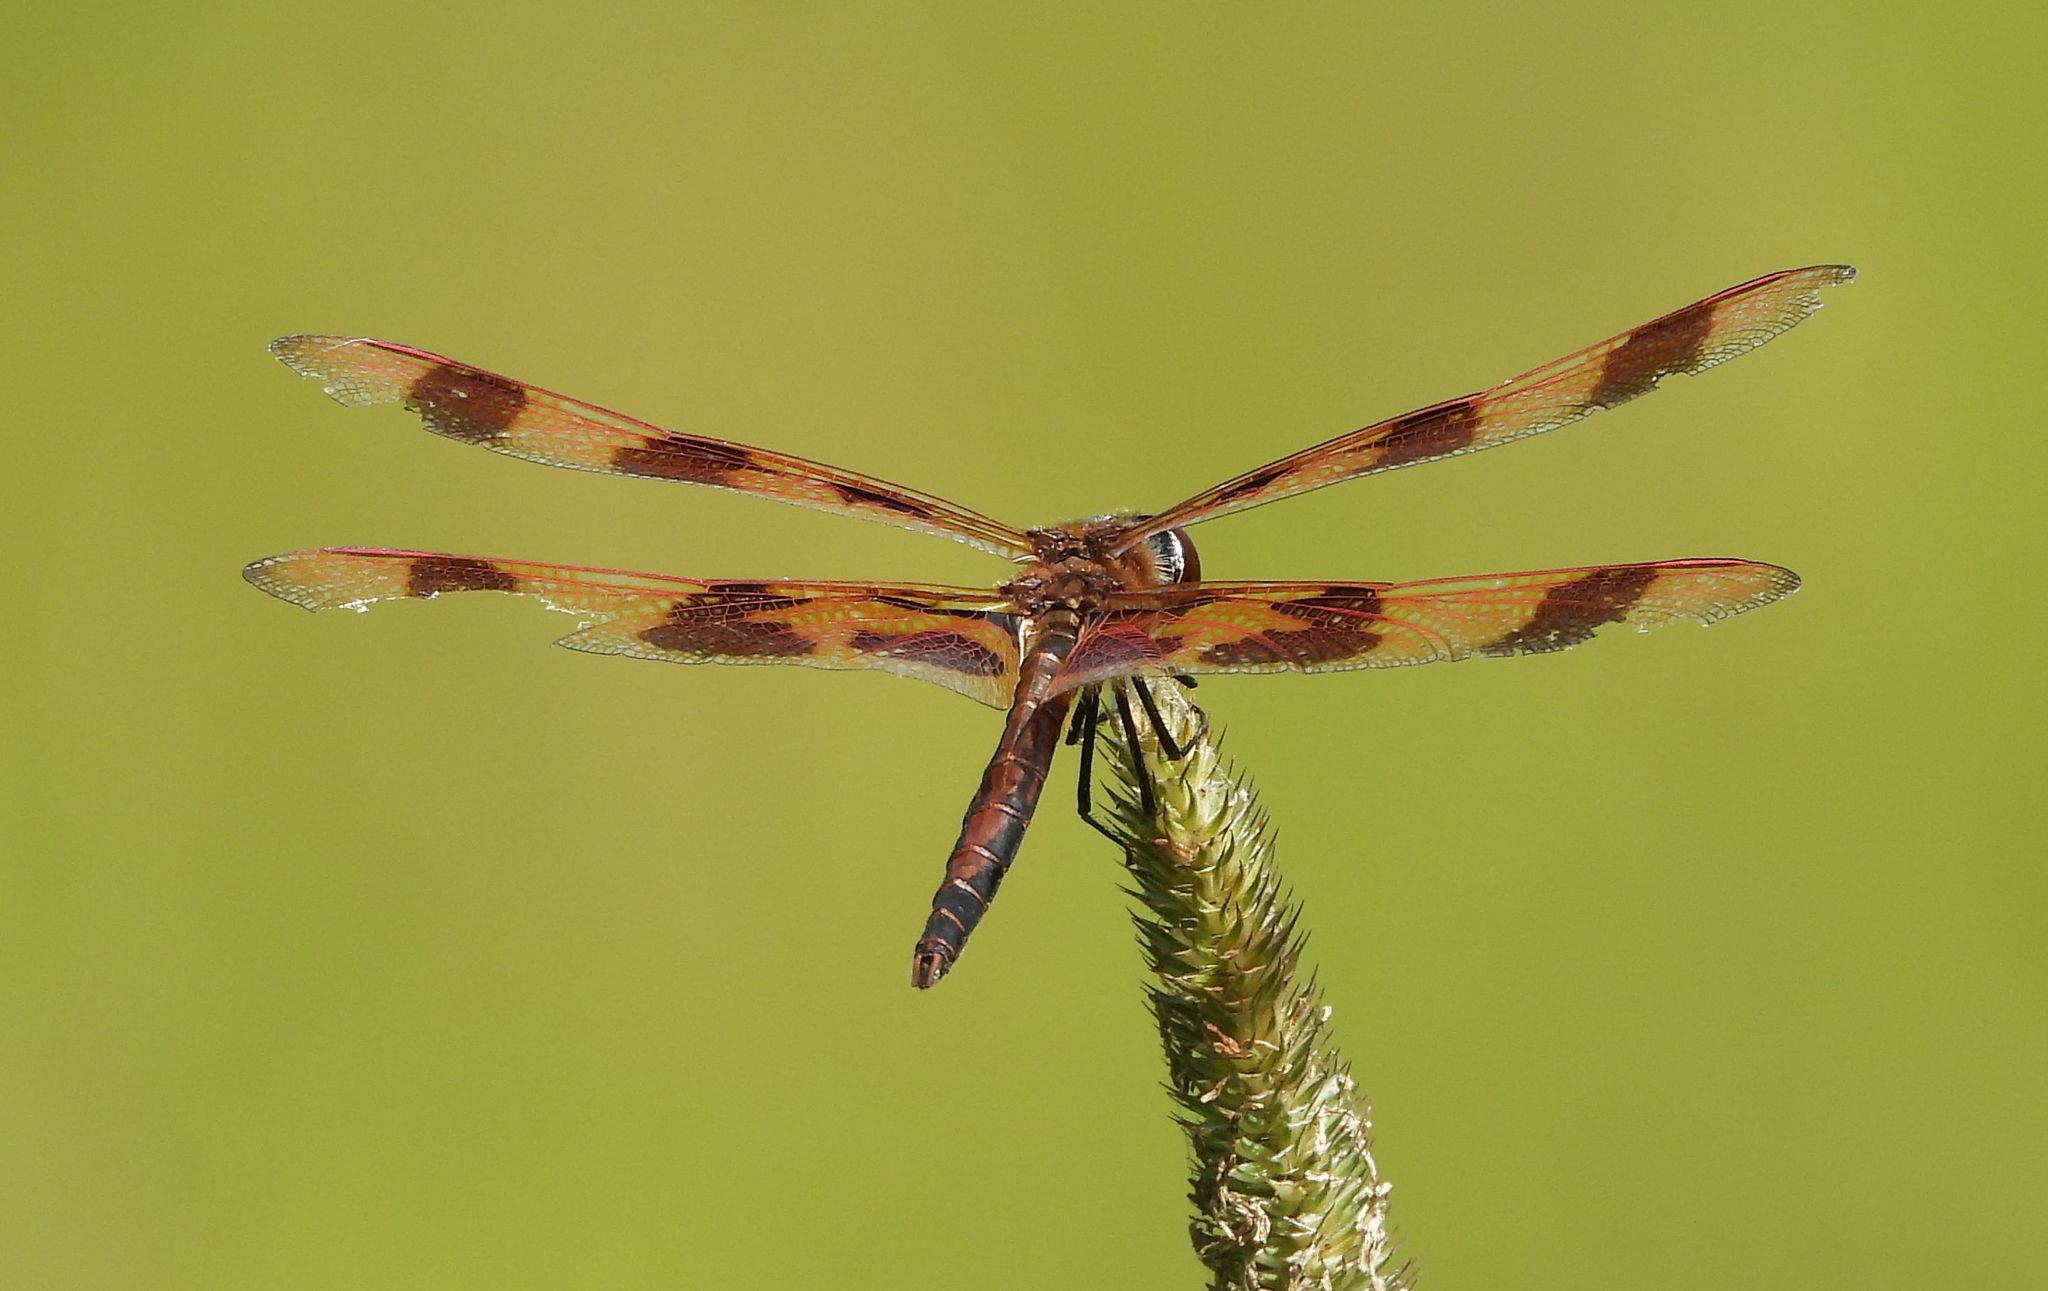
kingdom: Animalia
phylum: Arthropoda
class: Insecta
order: Odonata
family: Libellulidae
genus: Celithemis
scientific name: Celithemis eponina
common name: Halloween pennant
